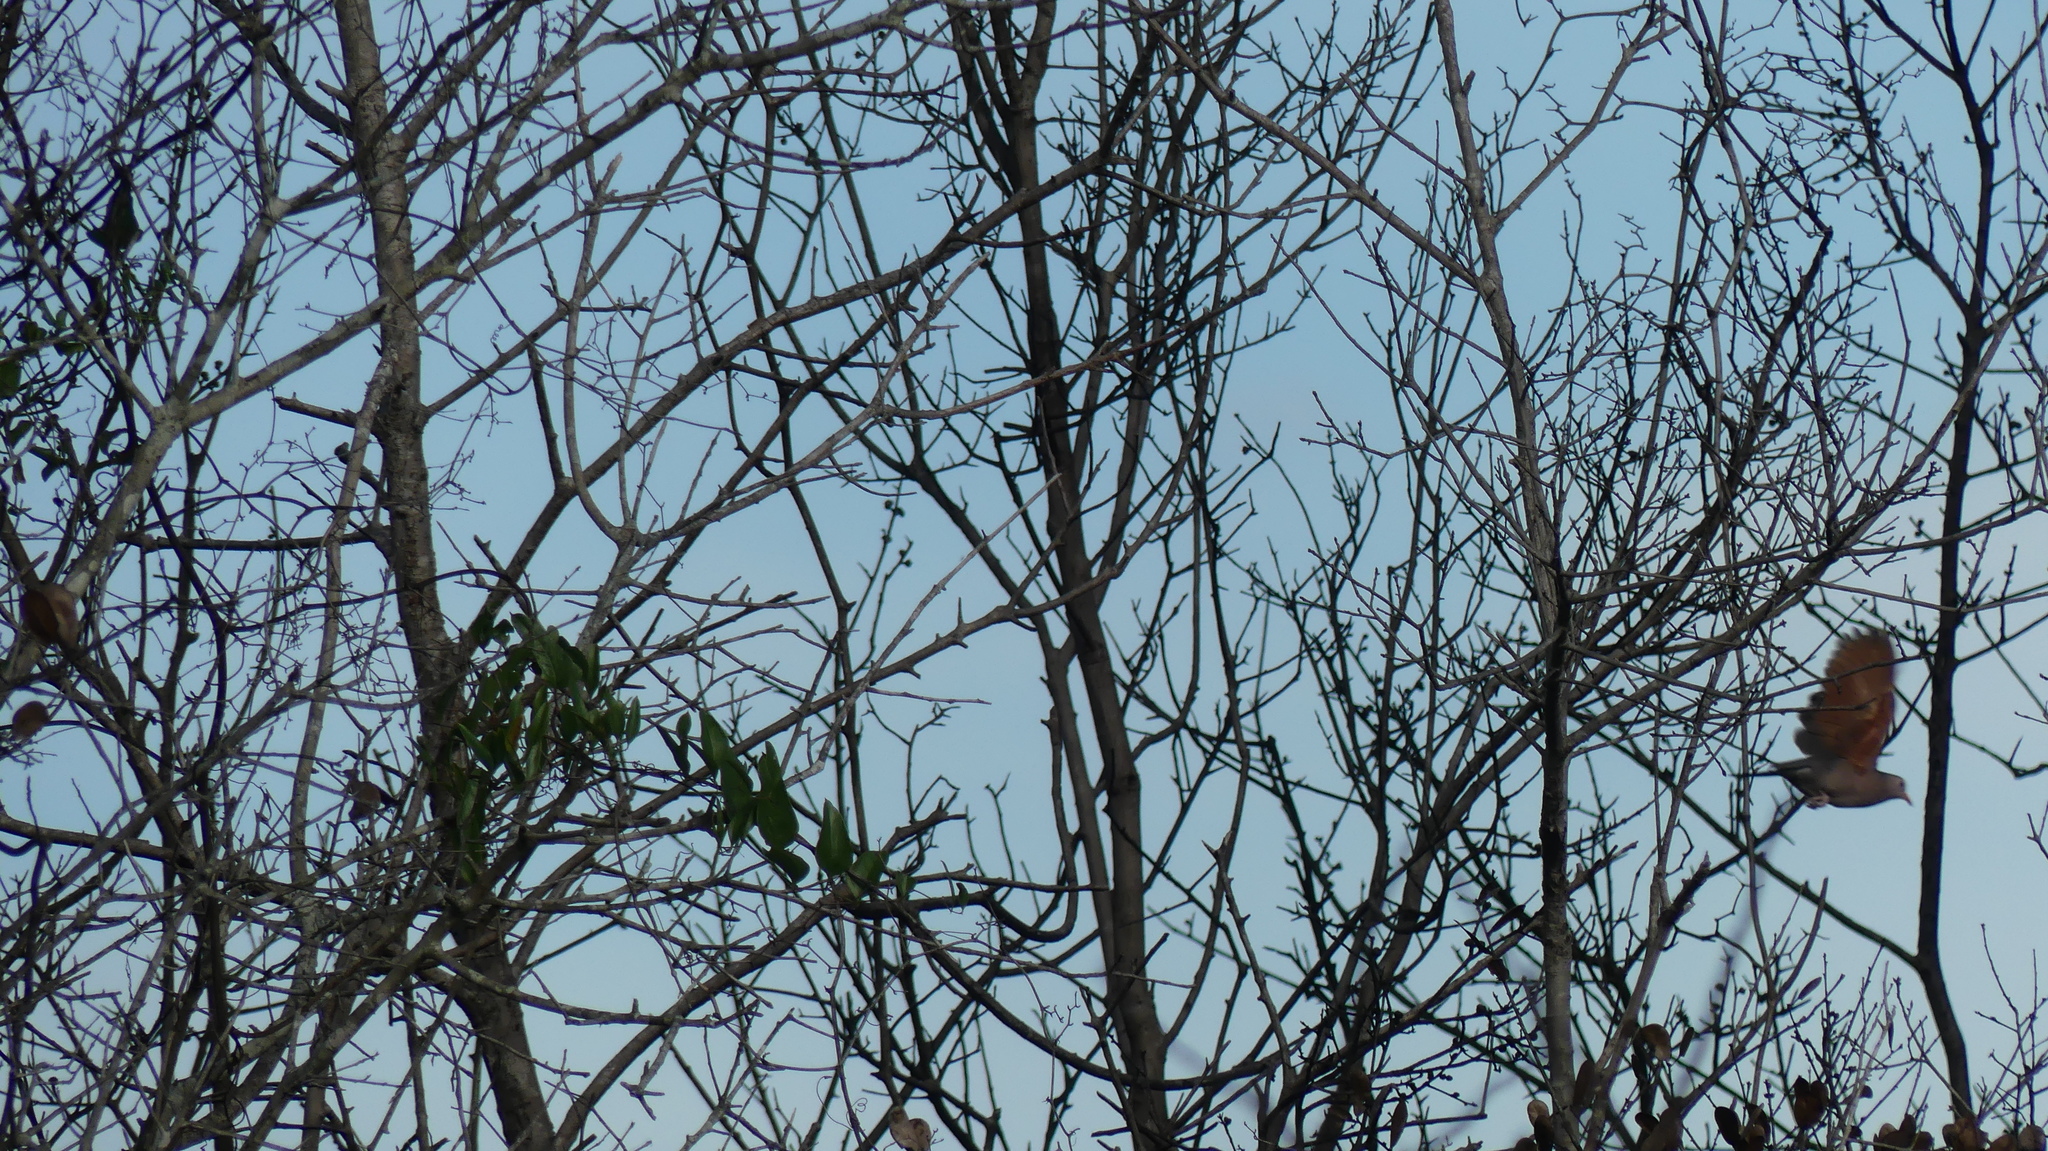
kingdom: Animalia
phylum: Chordata
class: Aves
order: Columbiformes
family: Columbidae
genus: Columbina
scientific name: Columbina passerina
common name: Common ground-dove
